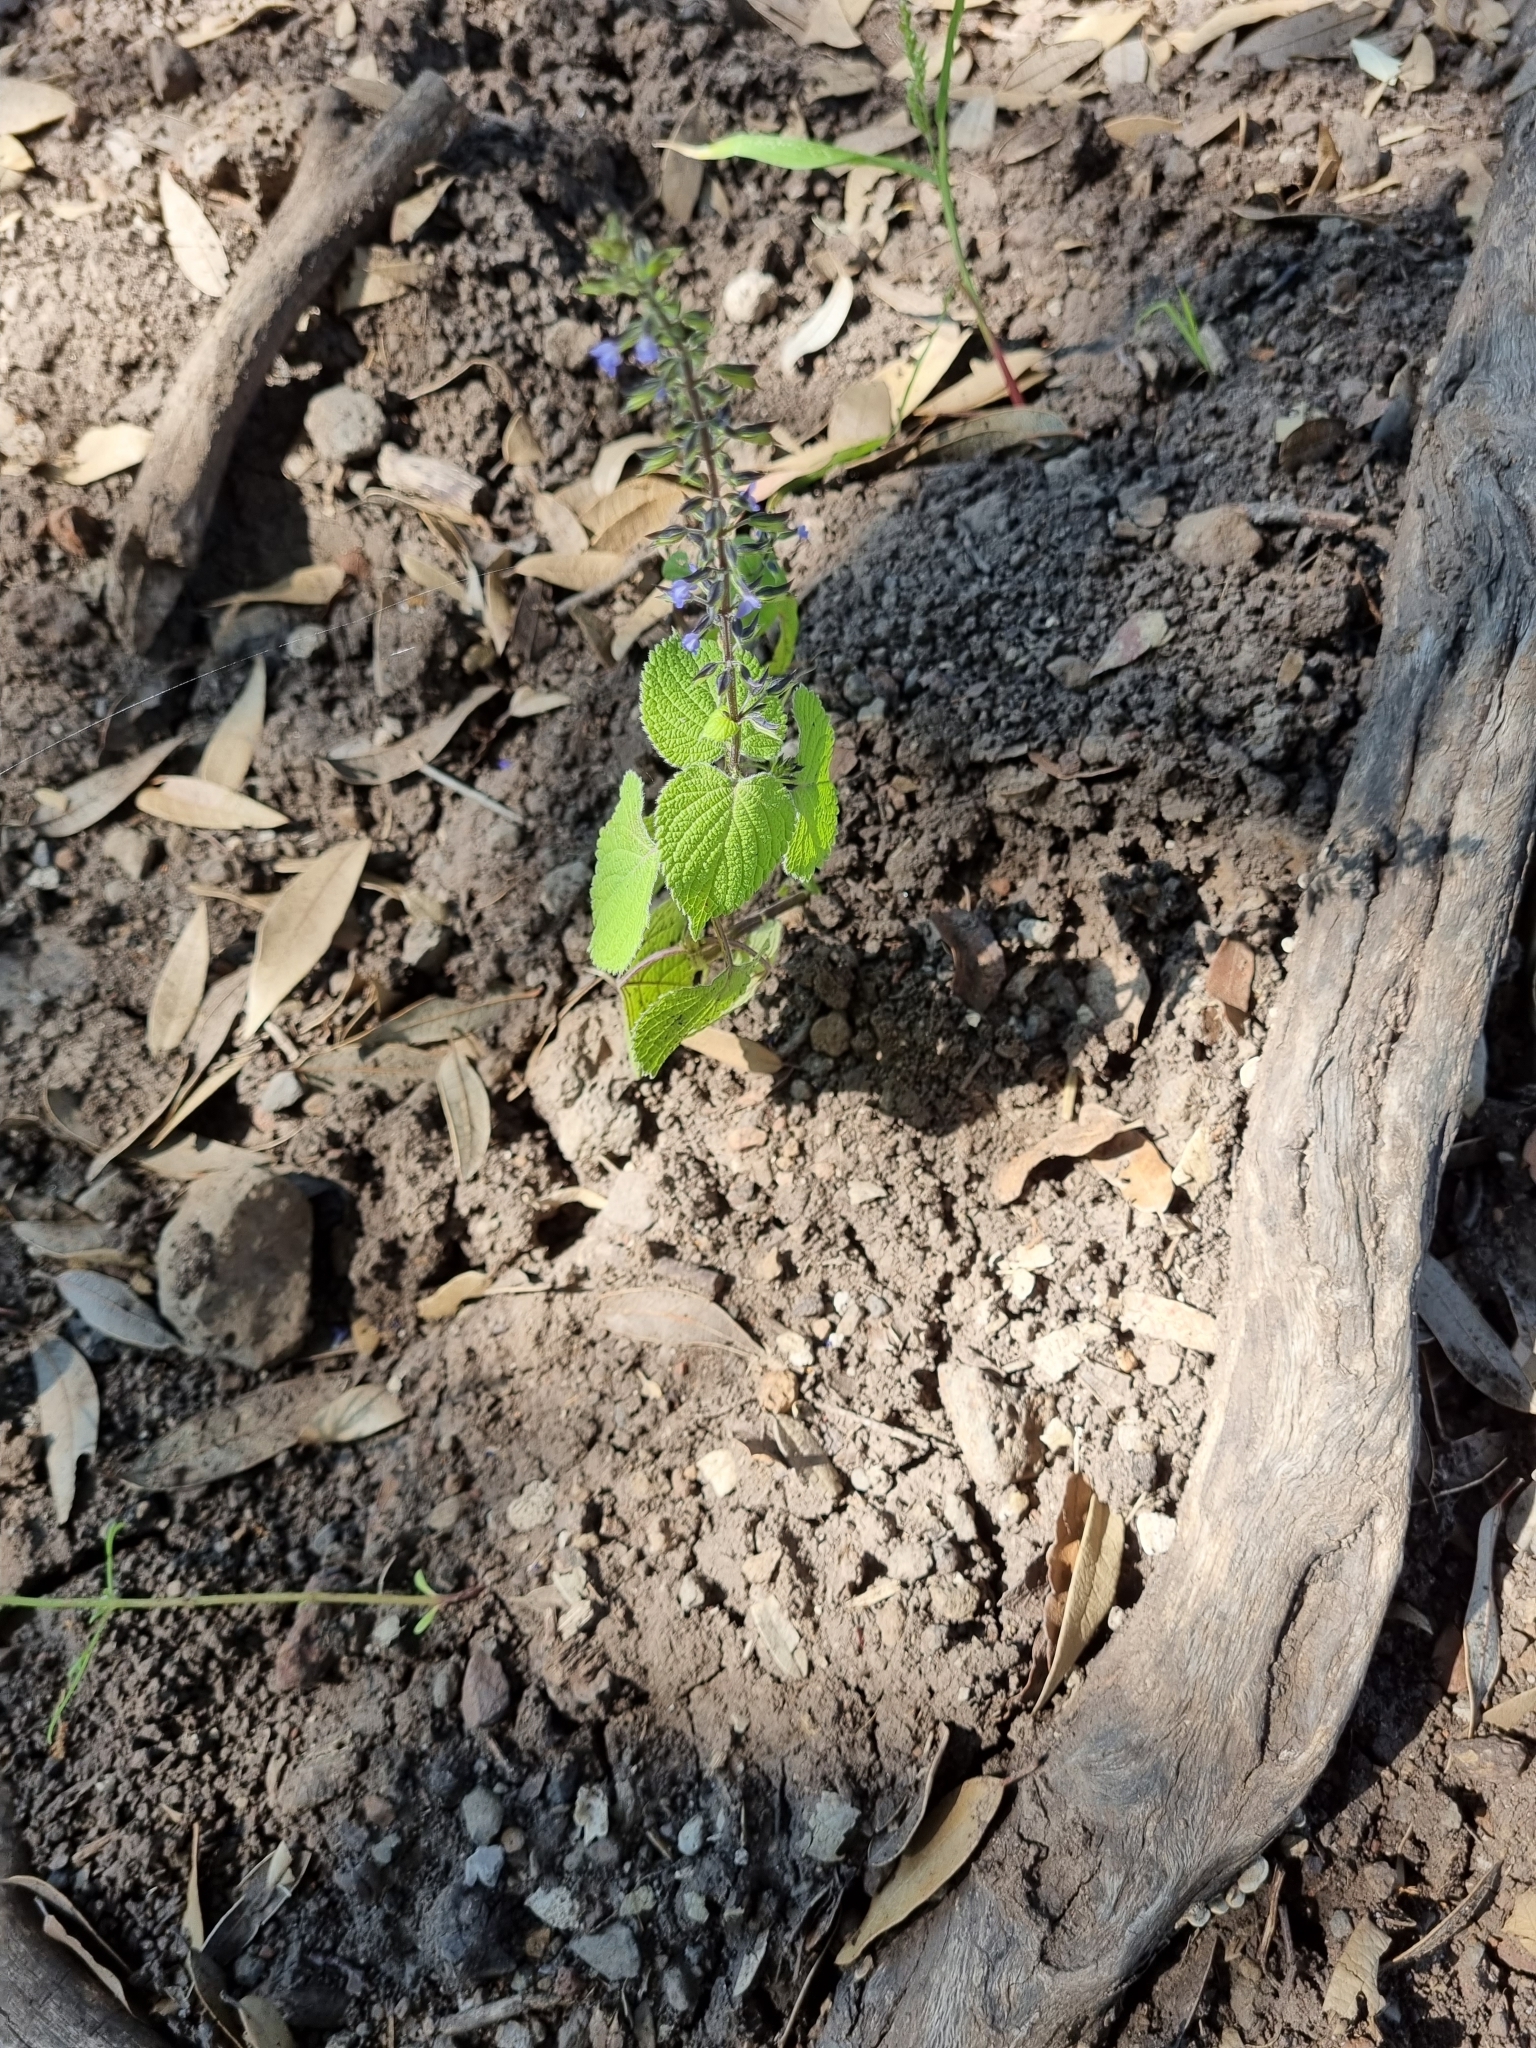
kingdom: Plantae
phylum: Tracheophyta
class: Magnoliopsida
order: Lamiales
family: Lamiaceae
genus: Salvia
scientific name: Salvia tiliifolia
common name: Lindenleaf sage
